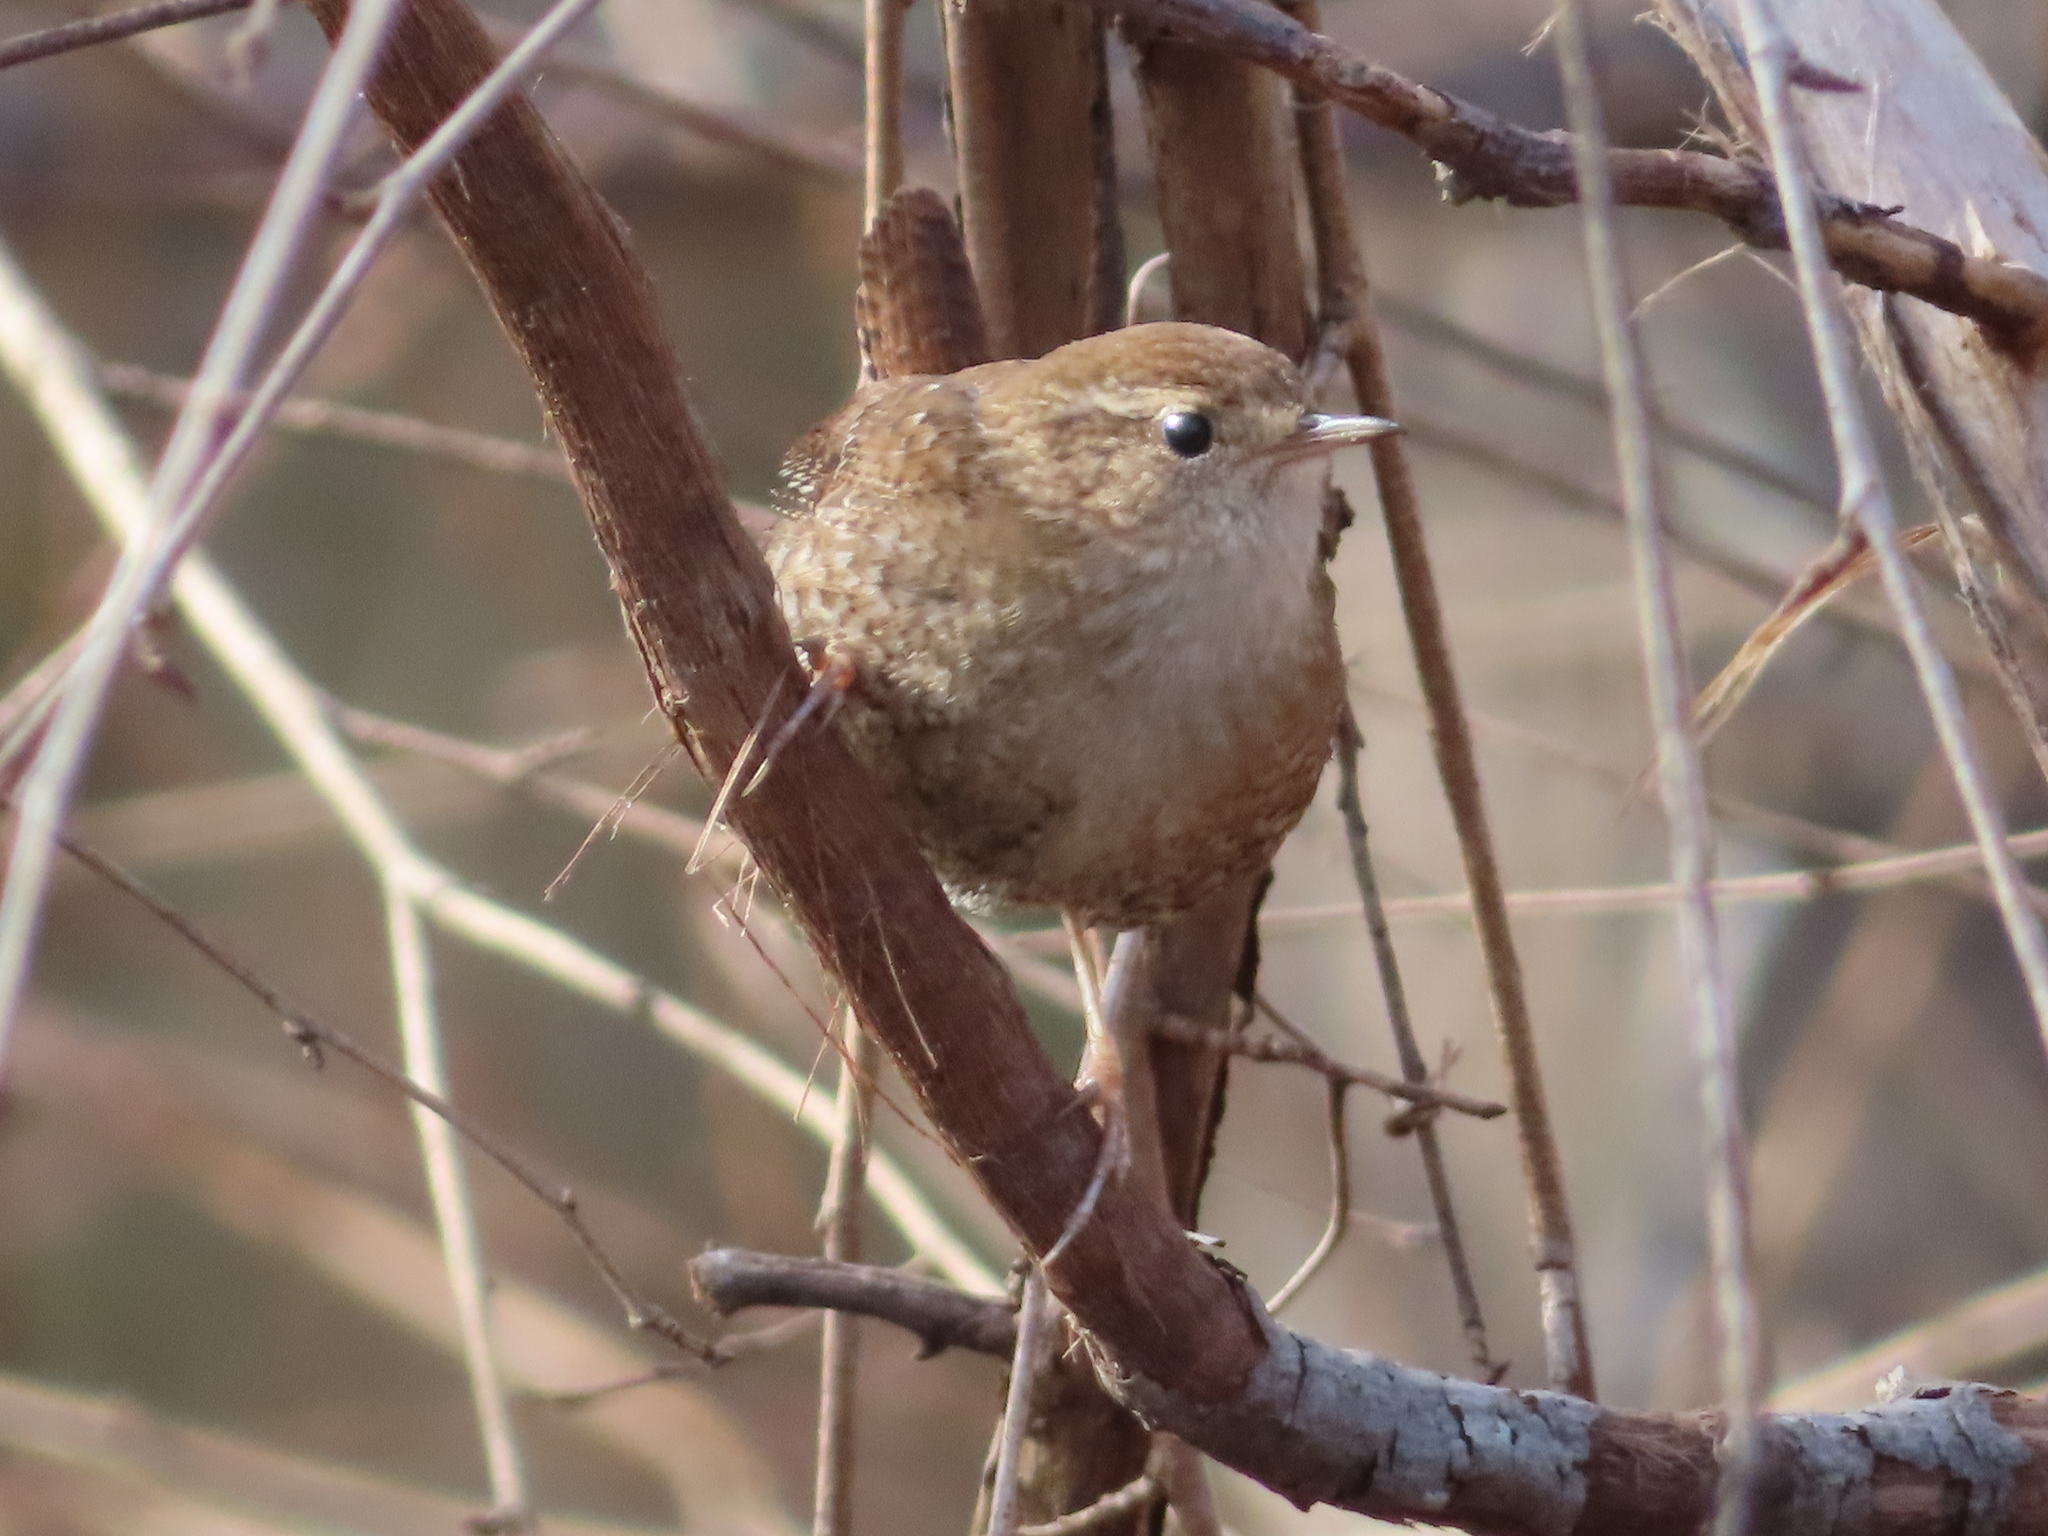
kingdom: Animalia
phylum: Chordata
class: Aves
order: Passeriformes
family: Troglodytidae
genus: Troglodytes
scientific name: Troglodytes hiemalis
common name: Winter wren
